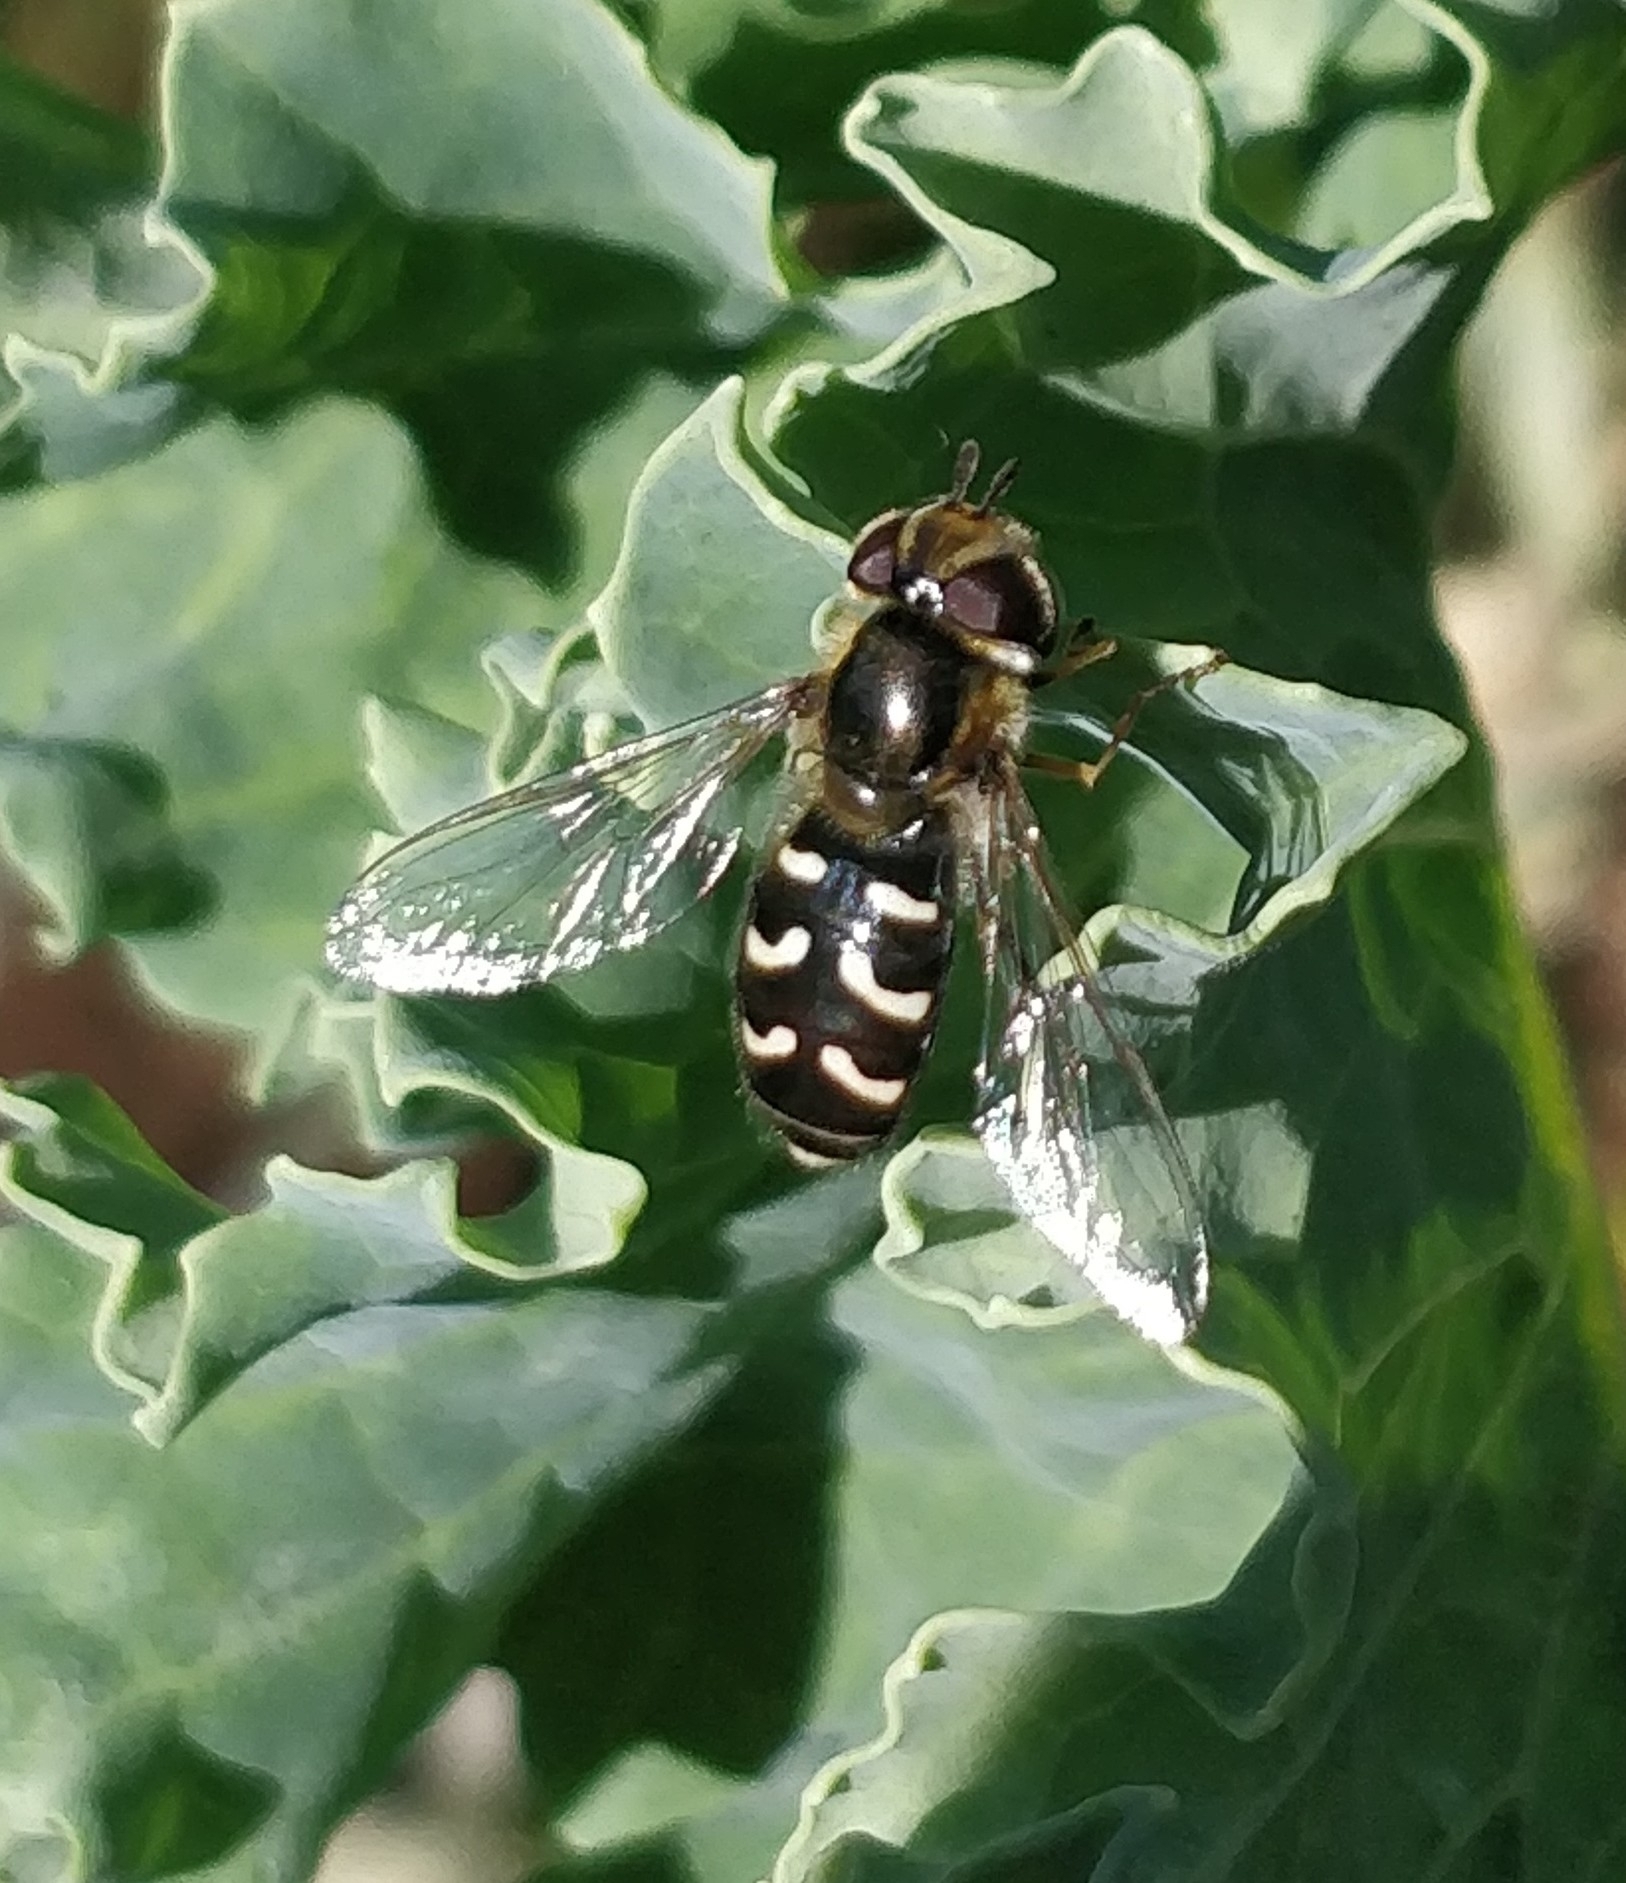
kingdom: Animalia
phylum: Arthropoda
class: Insecta
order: Diptera
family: Syrphidae
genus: Scaeva
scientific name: Scaeva pyrastri
